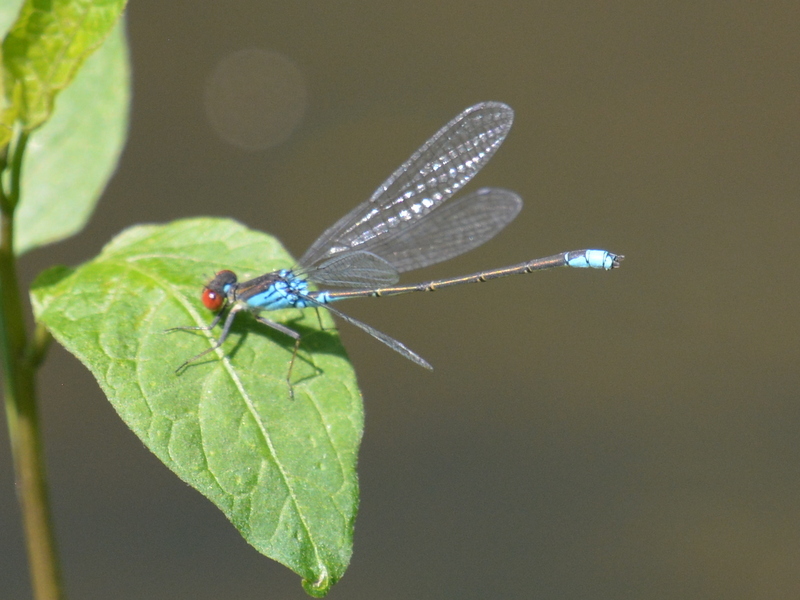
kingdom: Animalia
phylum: Arthropoda
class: Insecta
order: Odonata
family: Coenagrionidae
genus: Erythromma
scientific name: Erythromma viridulum
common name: Small red-eyed damselfly
